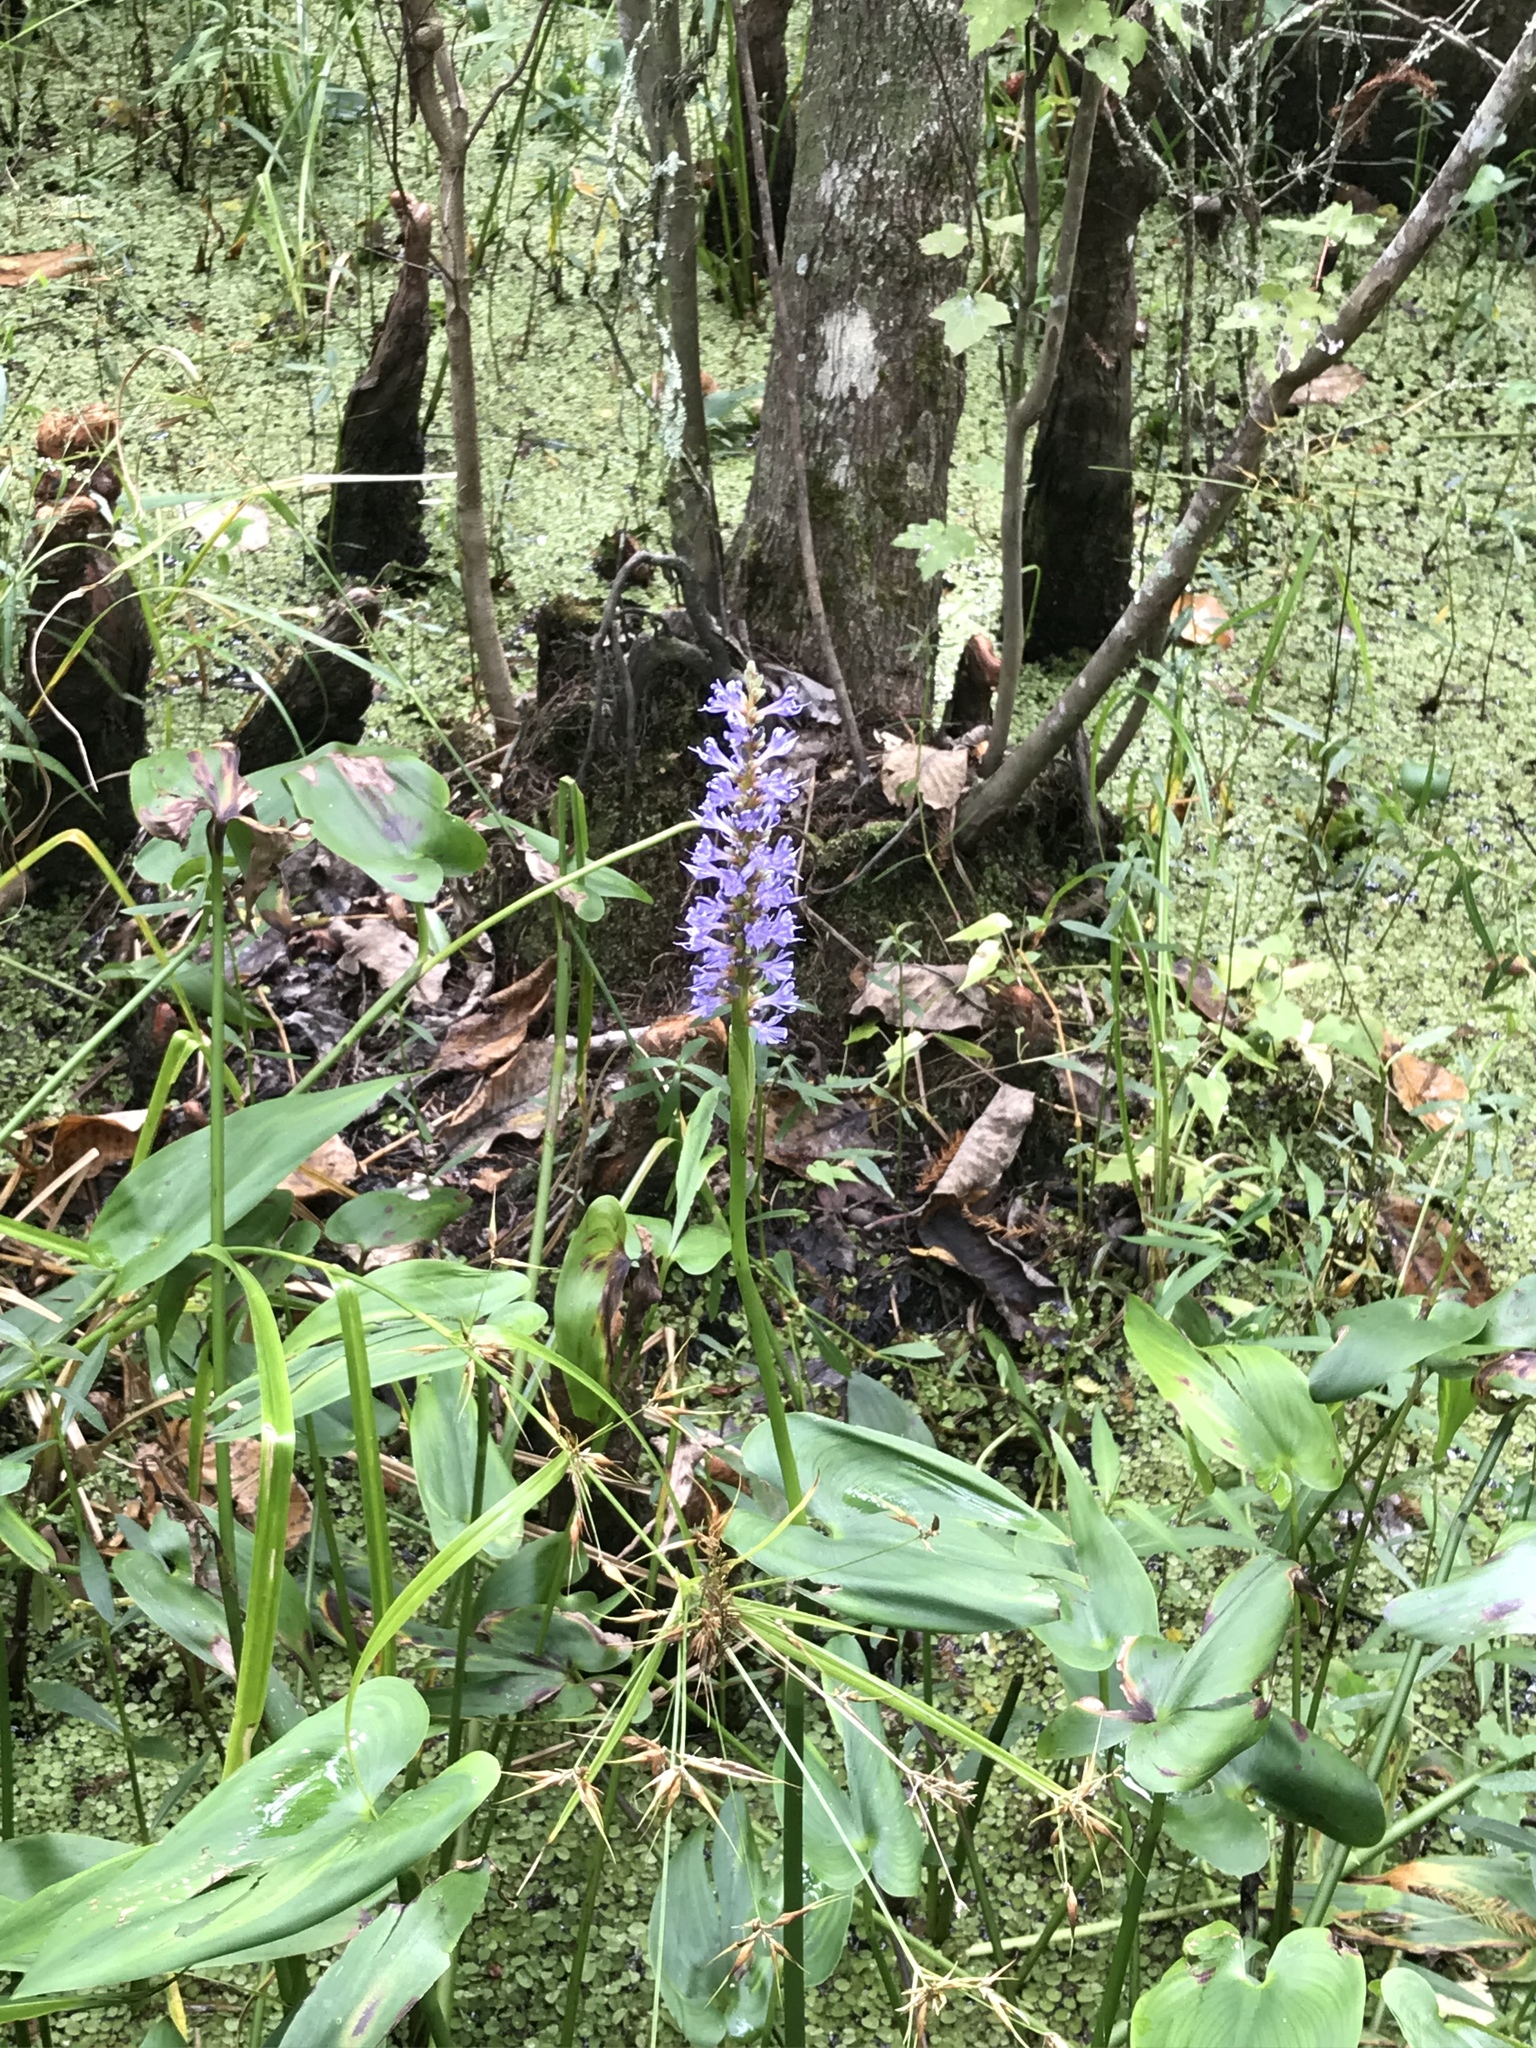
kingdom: Plantae
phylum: Tracheophyta
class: Liliopsida
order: Commelinales
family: Pontederiaceae
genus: Pontederia
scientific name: Pontederia cordata
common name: Pickerelweed
